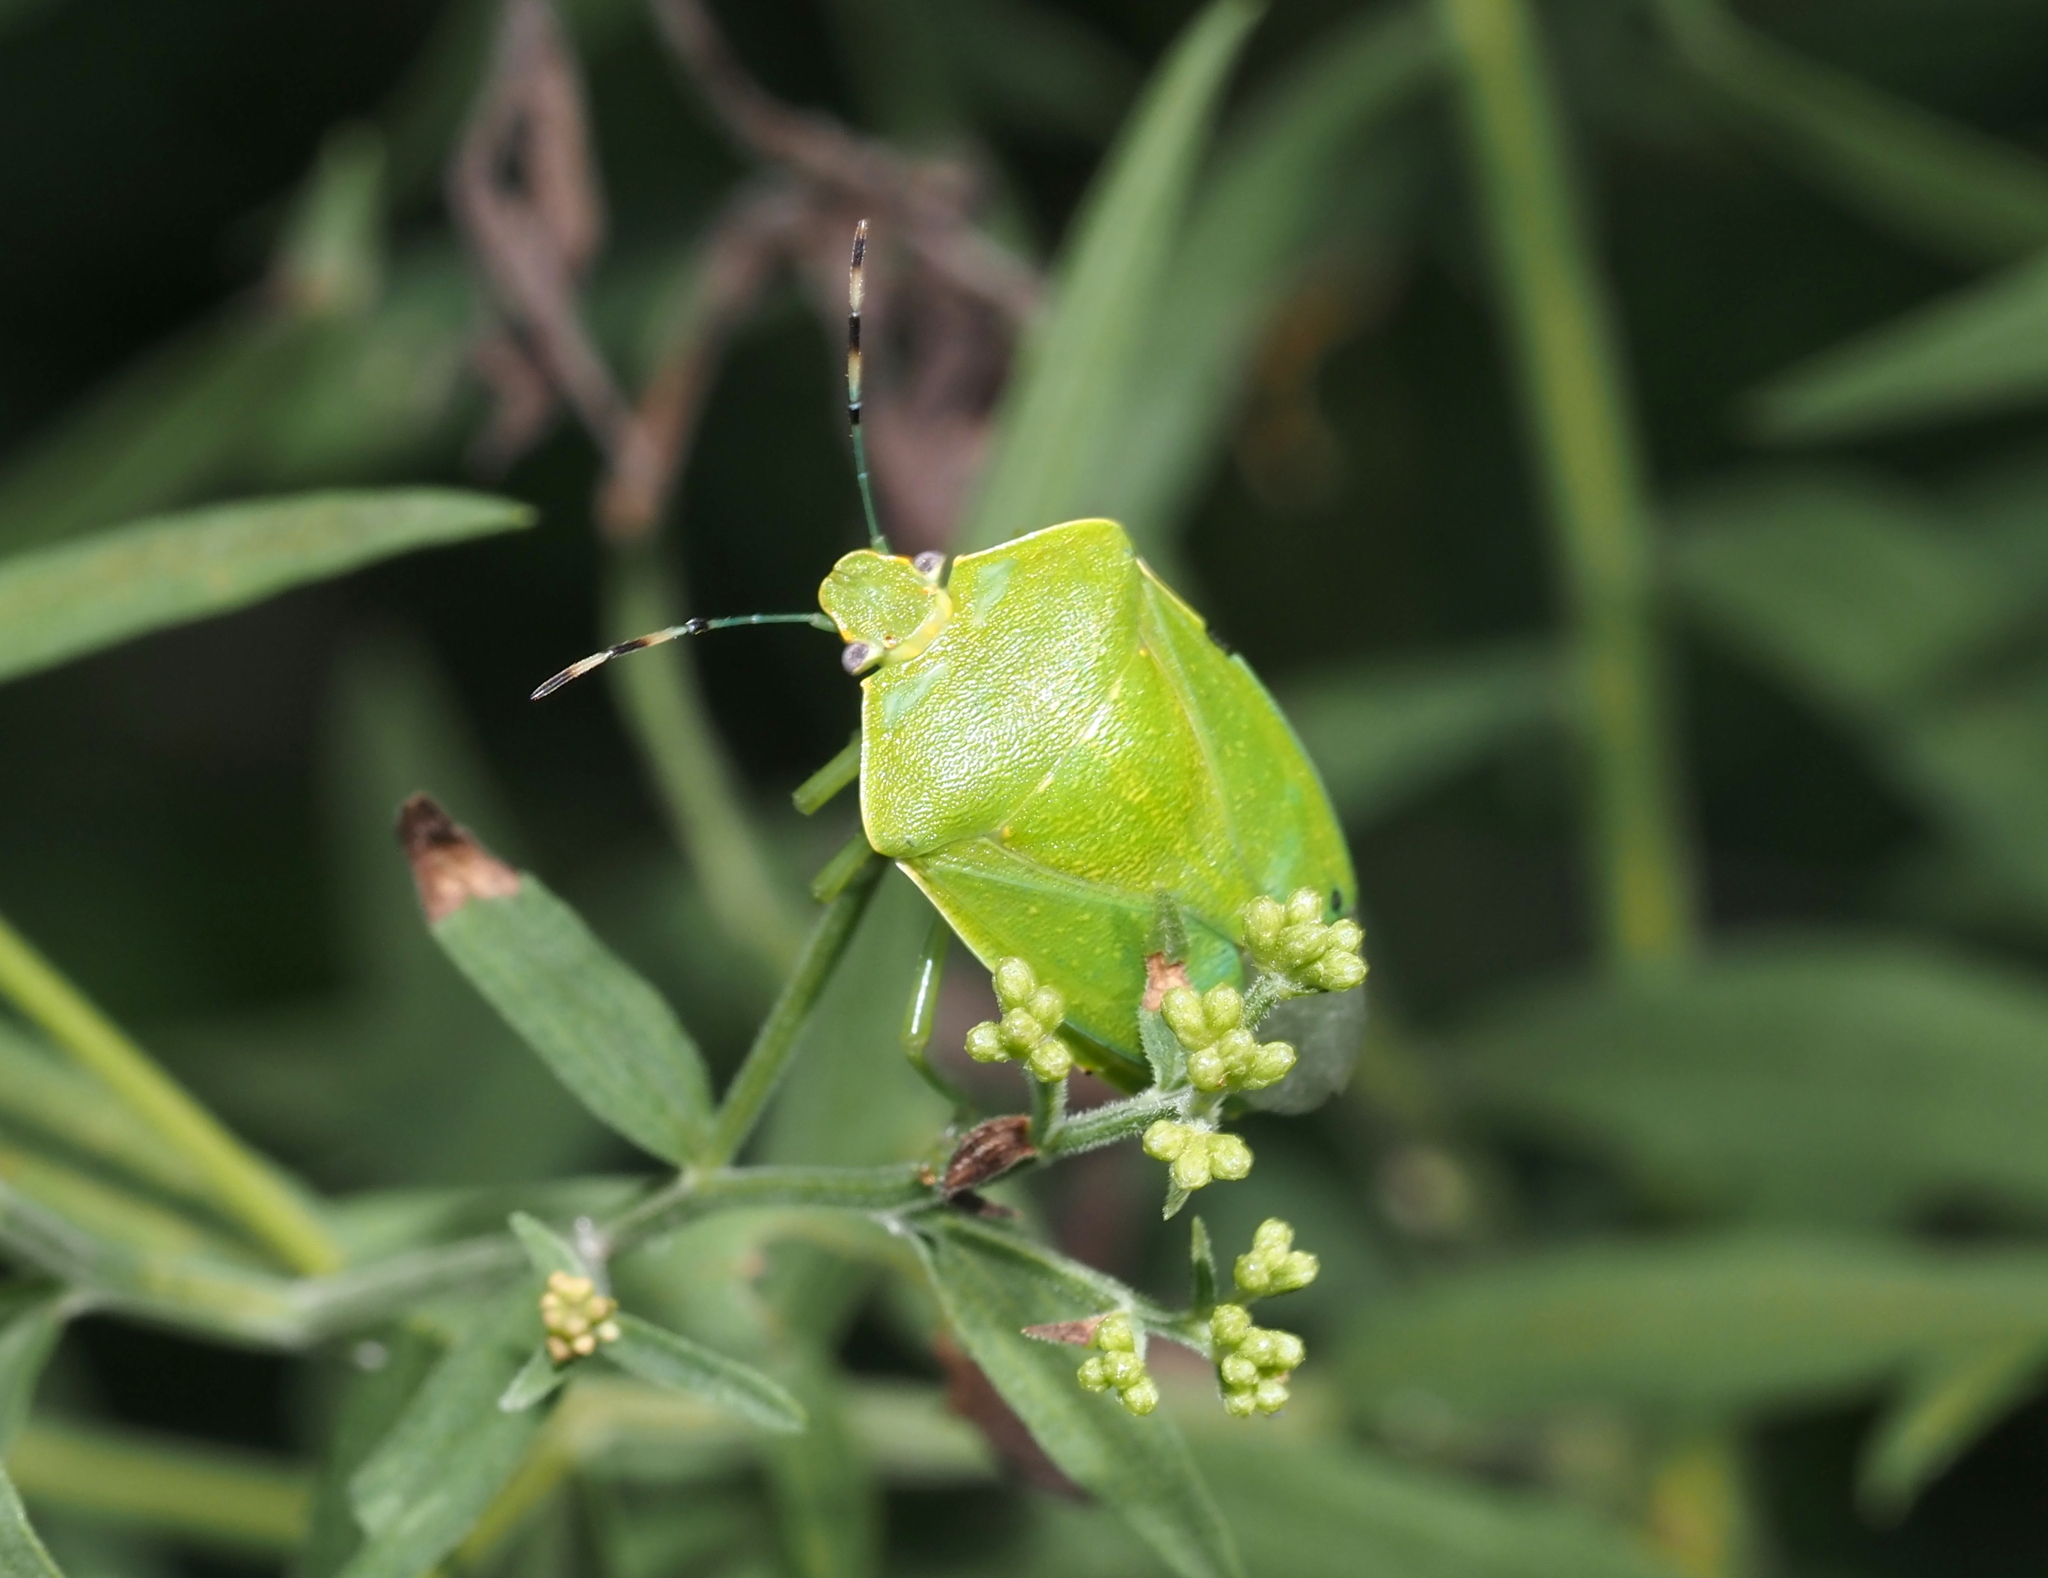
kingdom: Animalia
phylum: Arthropoda
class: Insecta
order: Hemiptera
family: Pentatomidae
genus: Chinavia
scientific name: Chinavia hilaris
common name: Green stink bug
